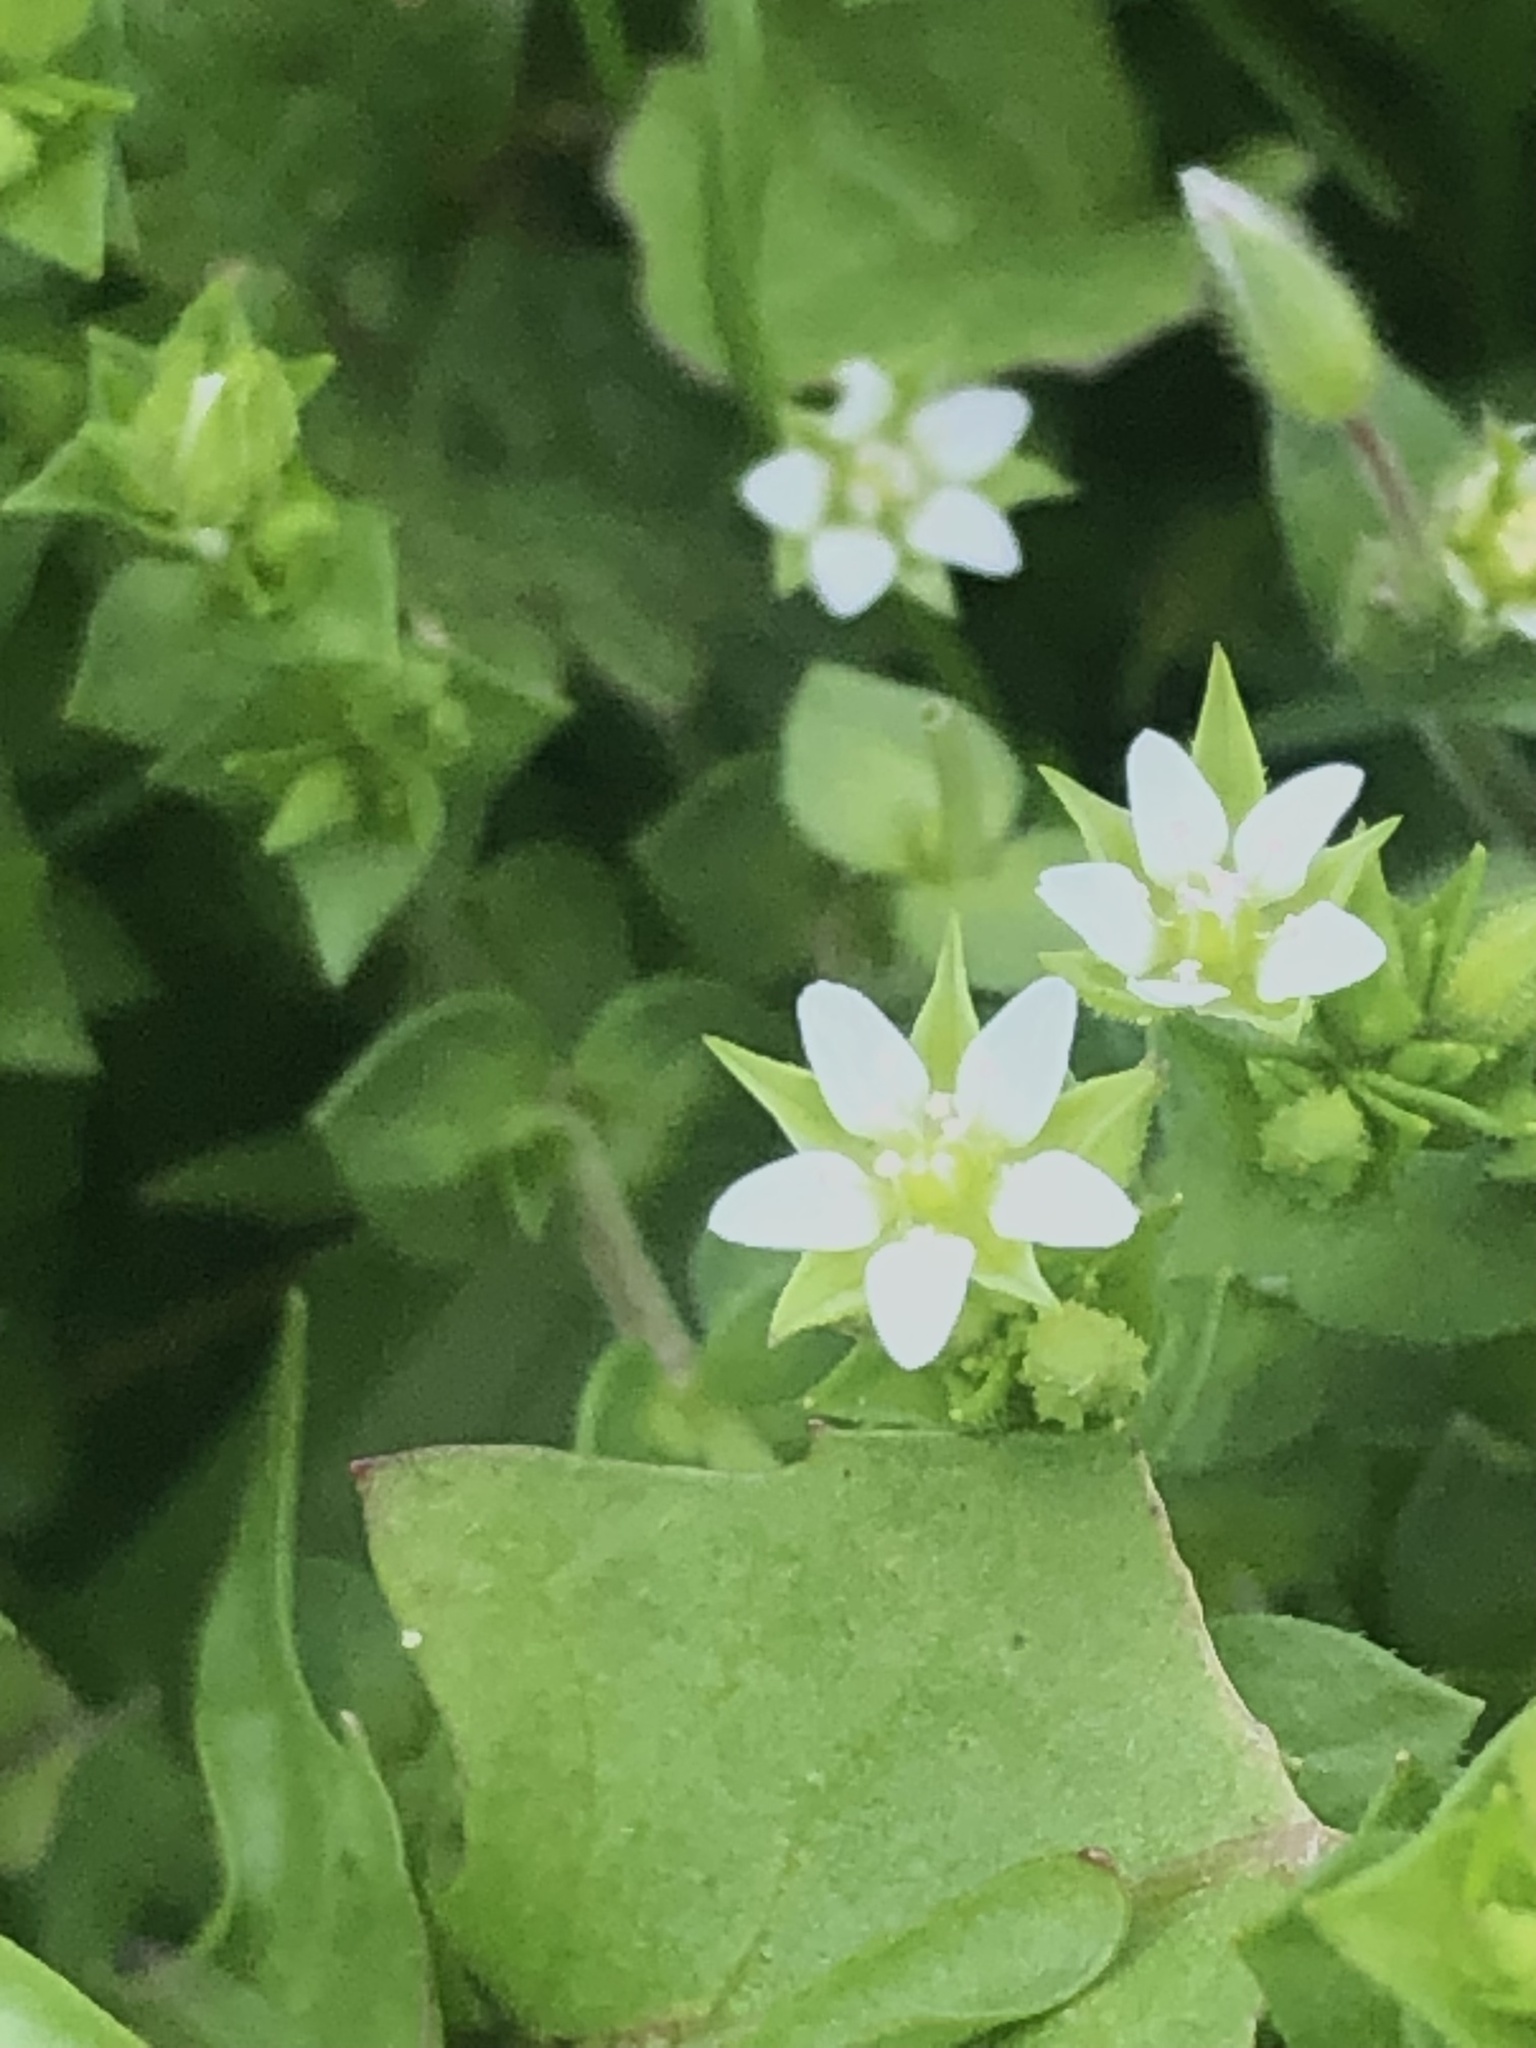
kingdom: Plantae
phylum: Tracheophyta
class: Magnoliopsida
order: Caryophyllales
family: Caryophyllaceae
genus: Arenaria
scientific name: Arenaria serpyllifolia
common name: Thyme-leaved sandwort
